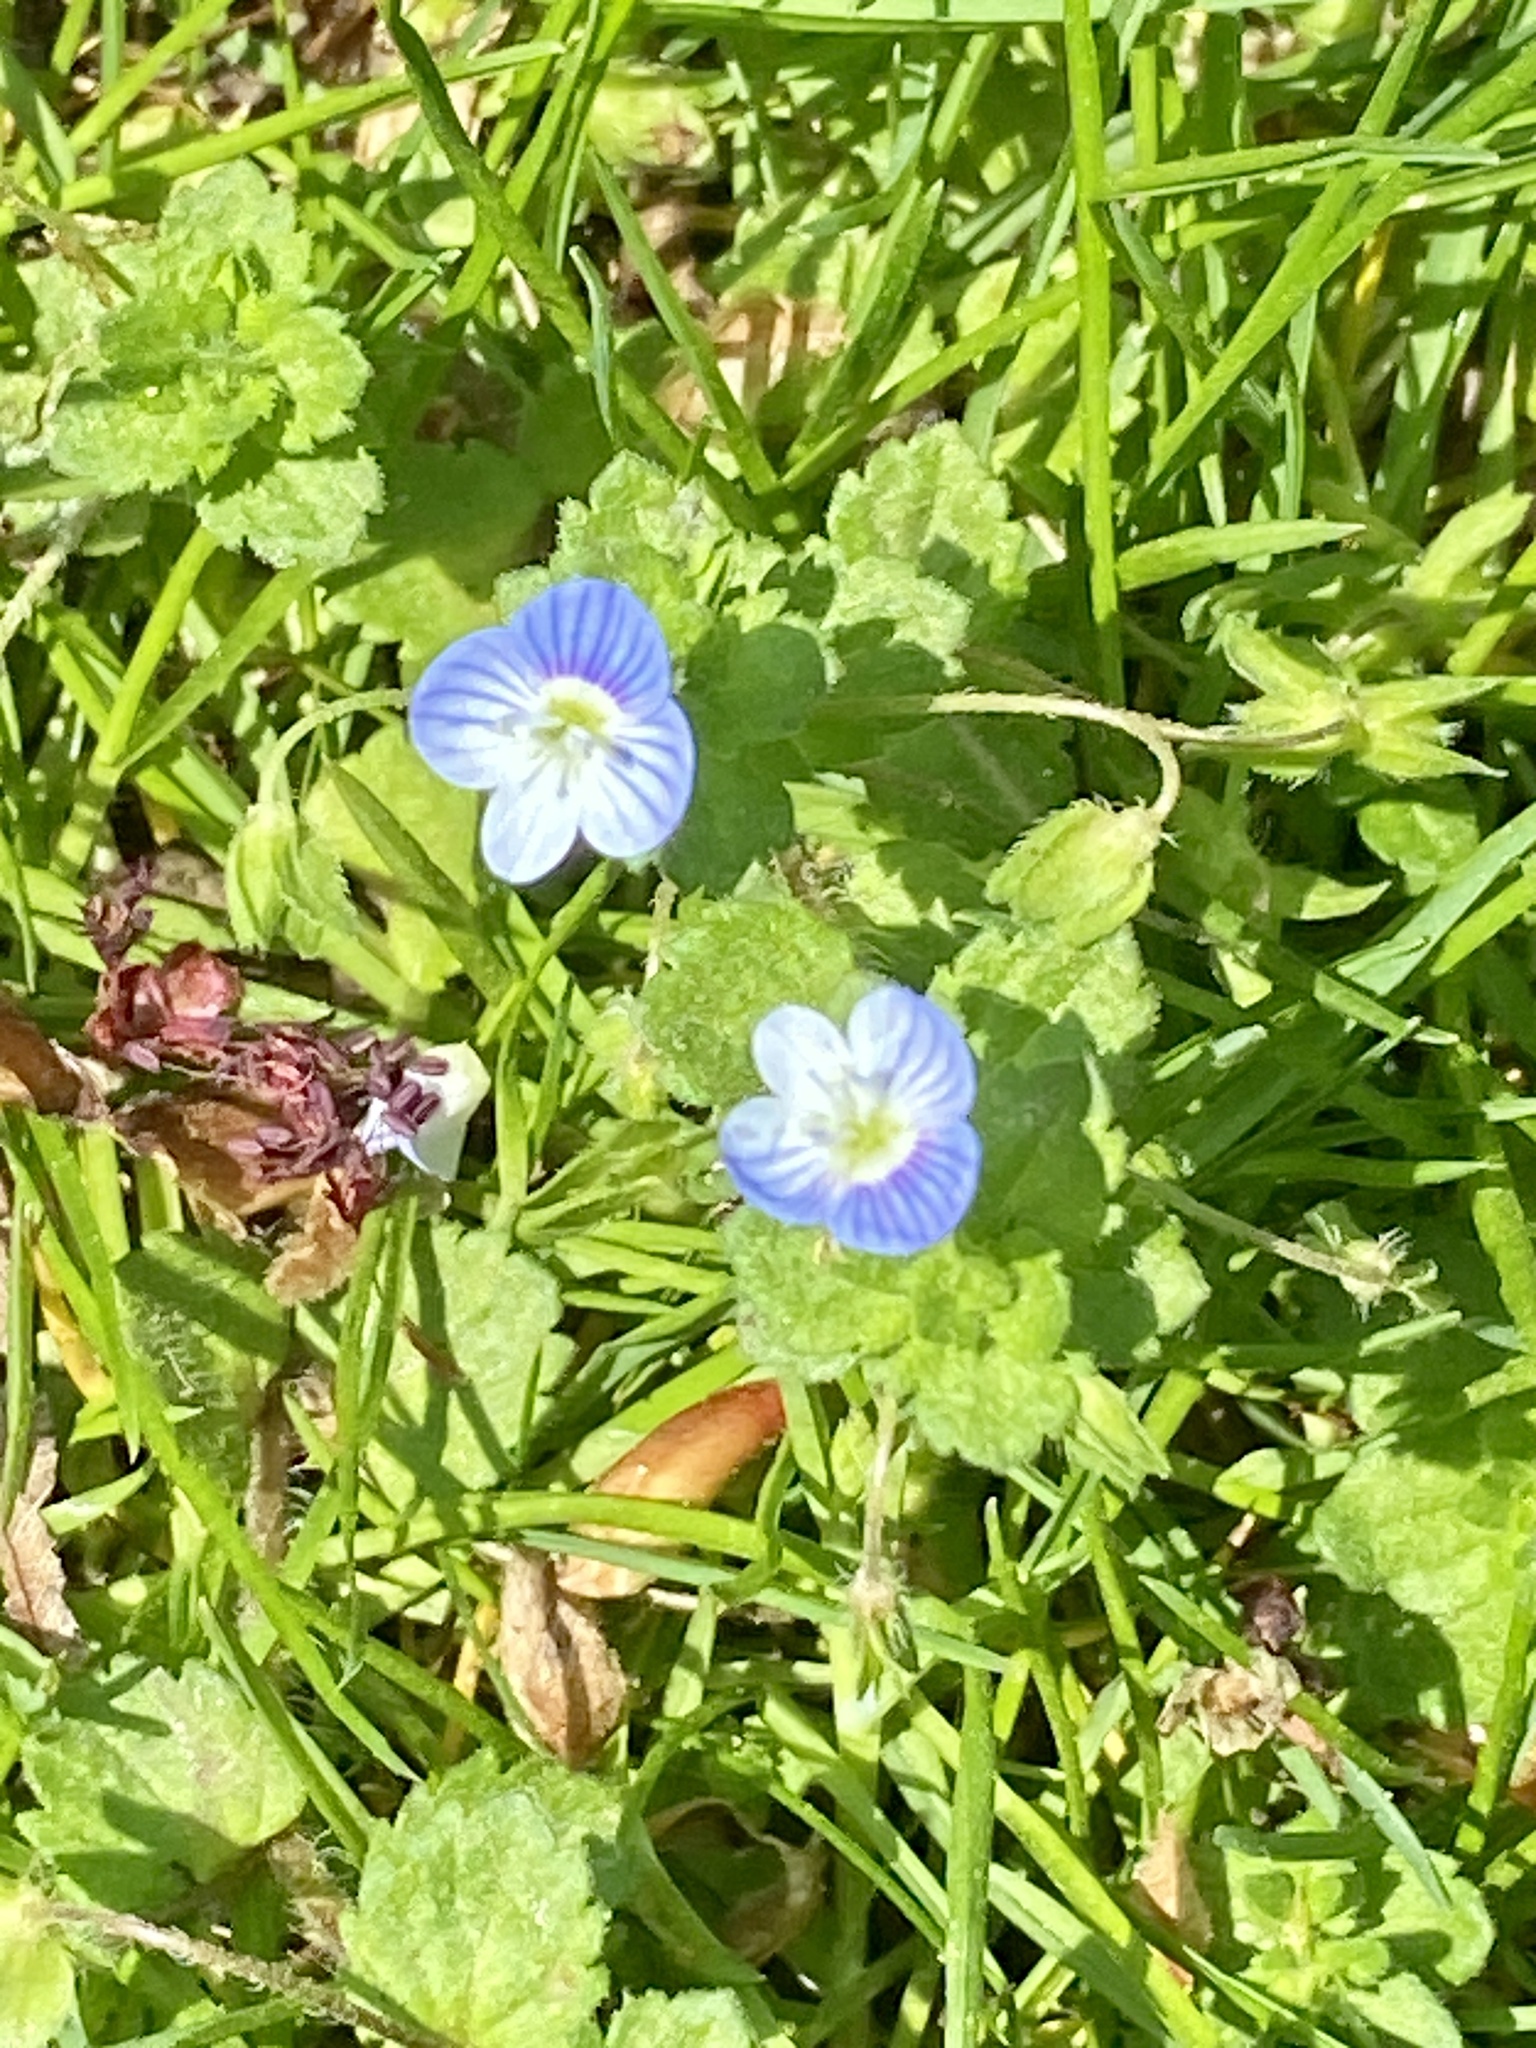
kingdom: Plantae
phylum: Tracheophyta
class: Magnoliopsida
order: Lamiales
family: Plantaginaceae
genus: Veronica
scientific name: Veronica persica
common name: Common field-speedwell
